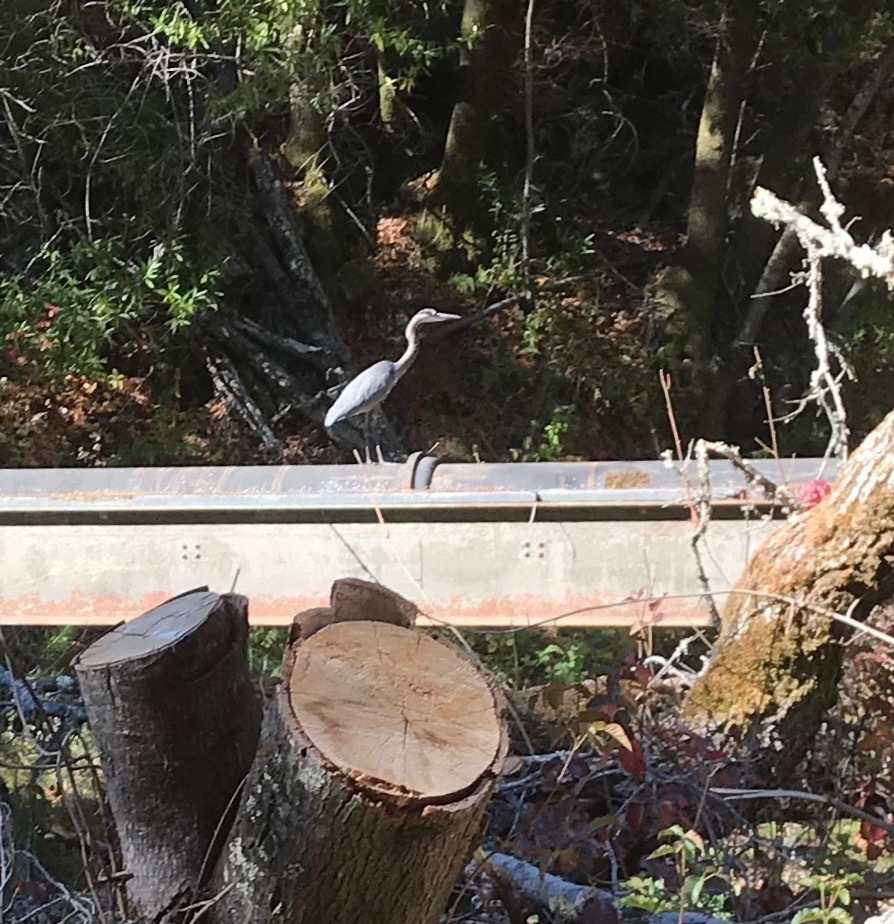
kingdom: Animalia
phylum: Chordata
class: Aves
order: Pelecaniformes
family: Ardeidae
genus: Ardea
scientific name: Ardea herodias
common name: Great blue heron
